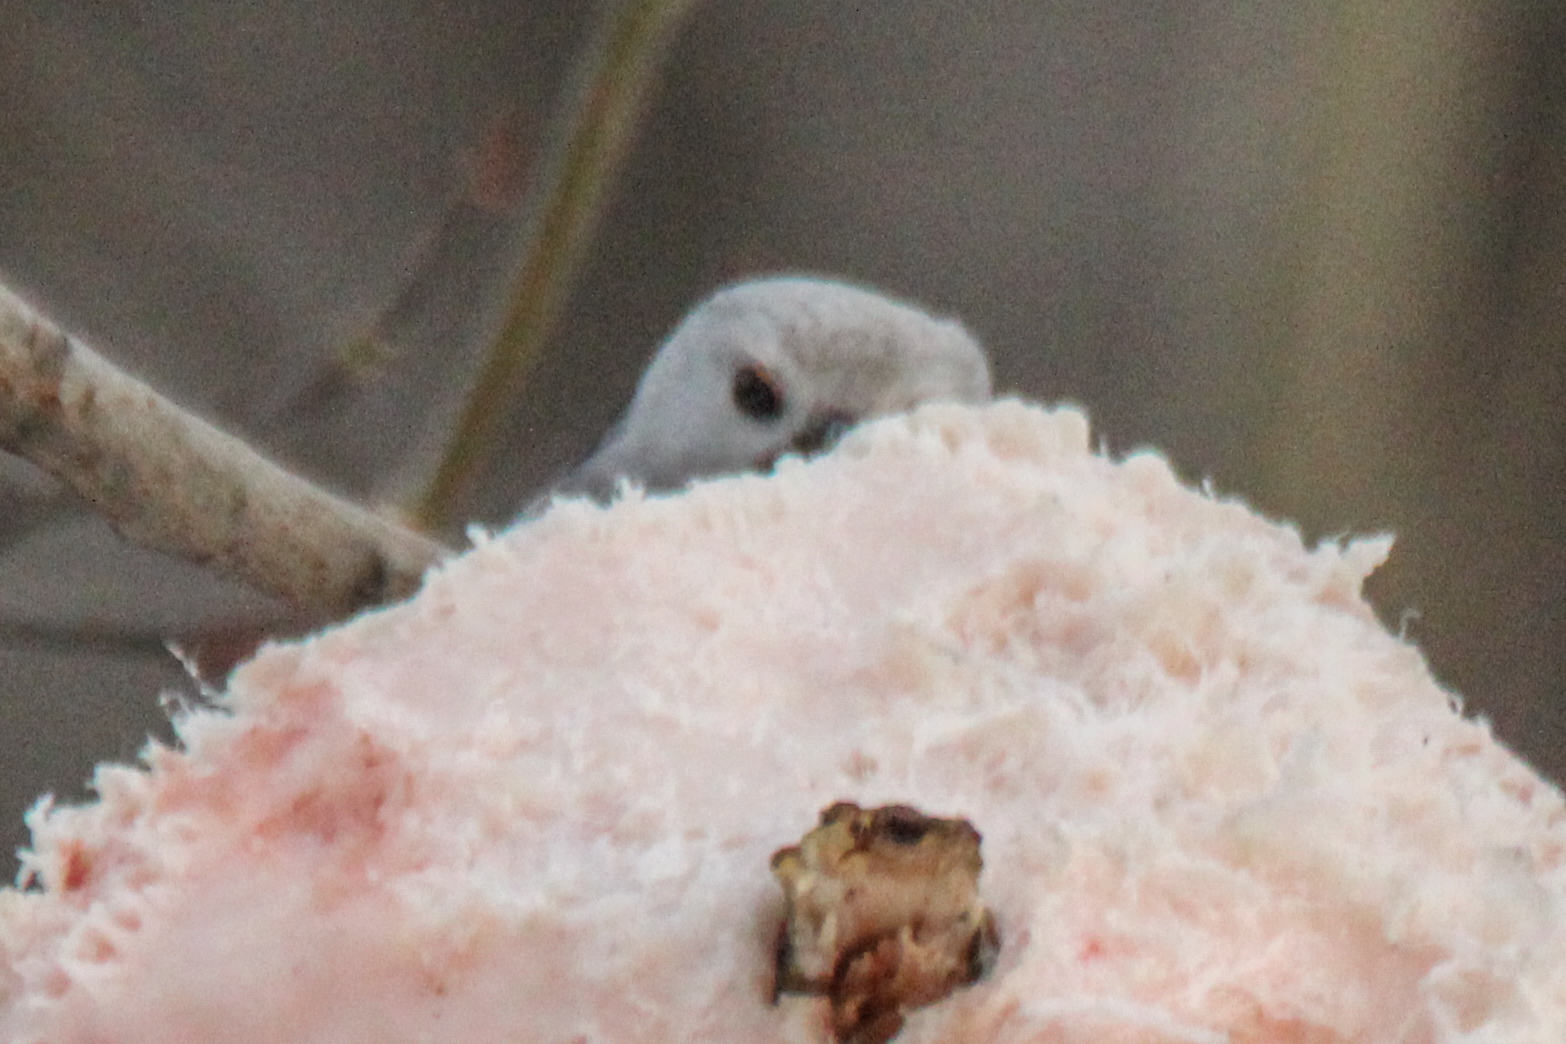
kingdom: Animalia
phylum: Chordata
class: Aves
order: Passeriformes
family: Aegithalidae
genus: Aegithalos
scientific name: Aegithalos caudatus
